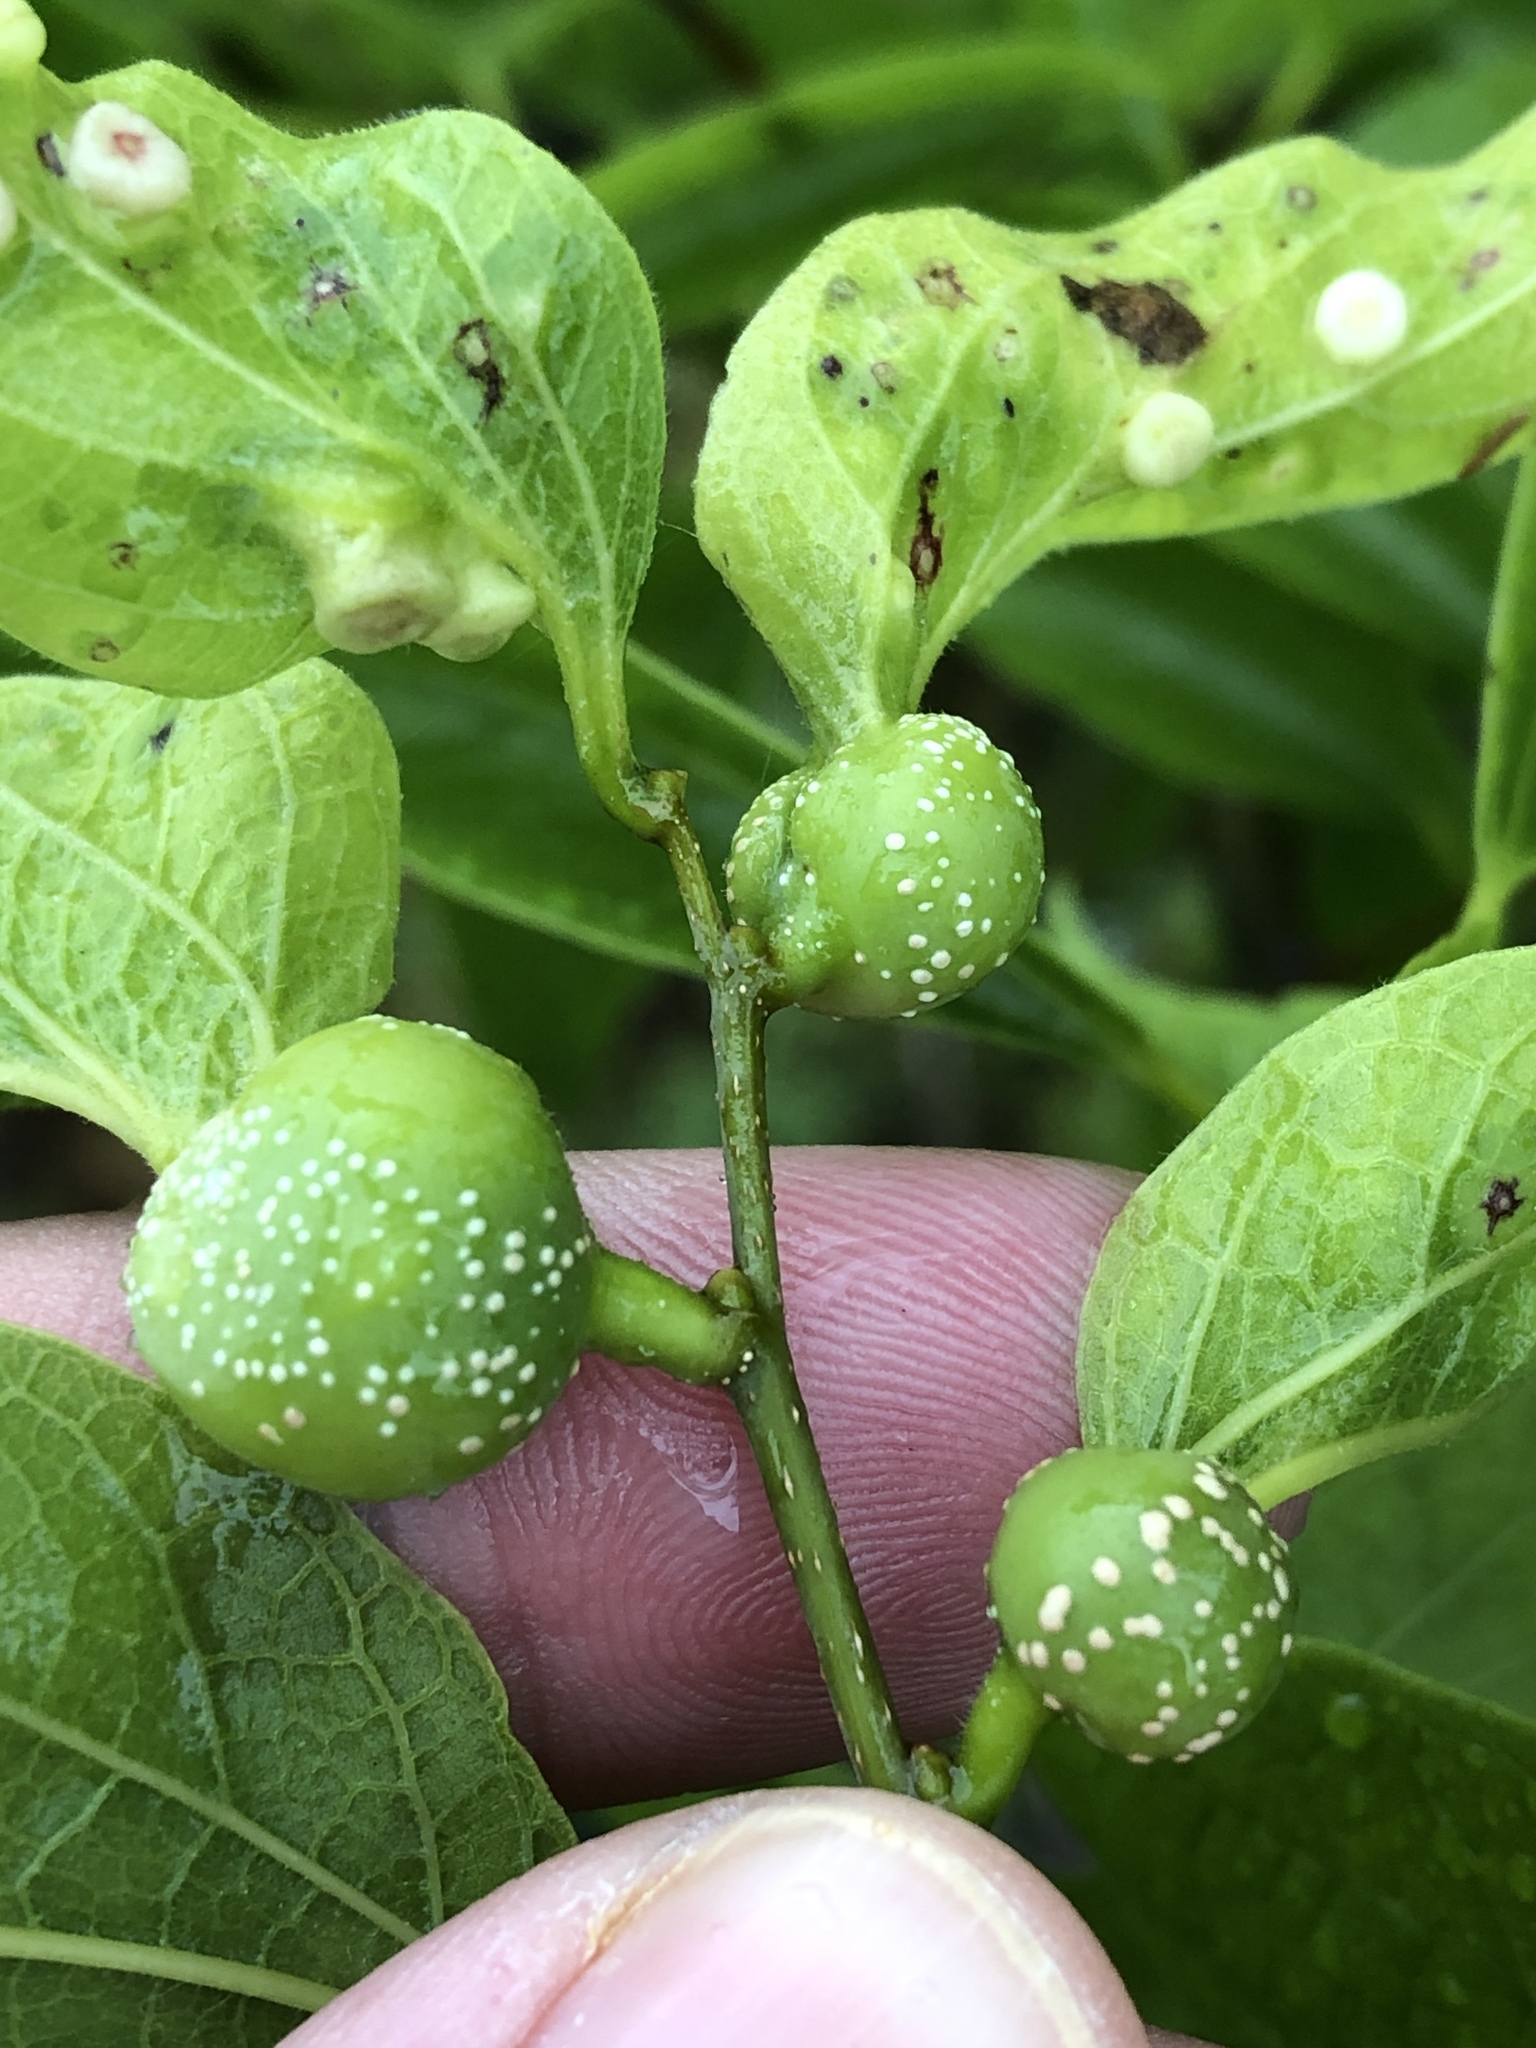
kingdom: Animalia
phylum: Arthropoda
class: Insecta
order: Hemiptera
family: Aphalaridae
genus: Pachypsylla
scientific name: Pachypsylla venusta
